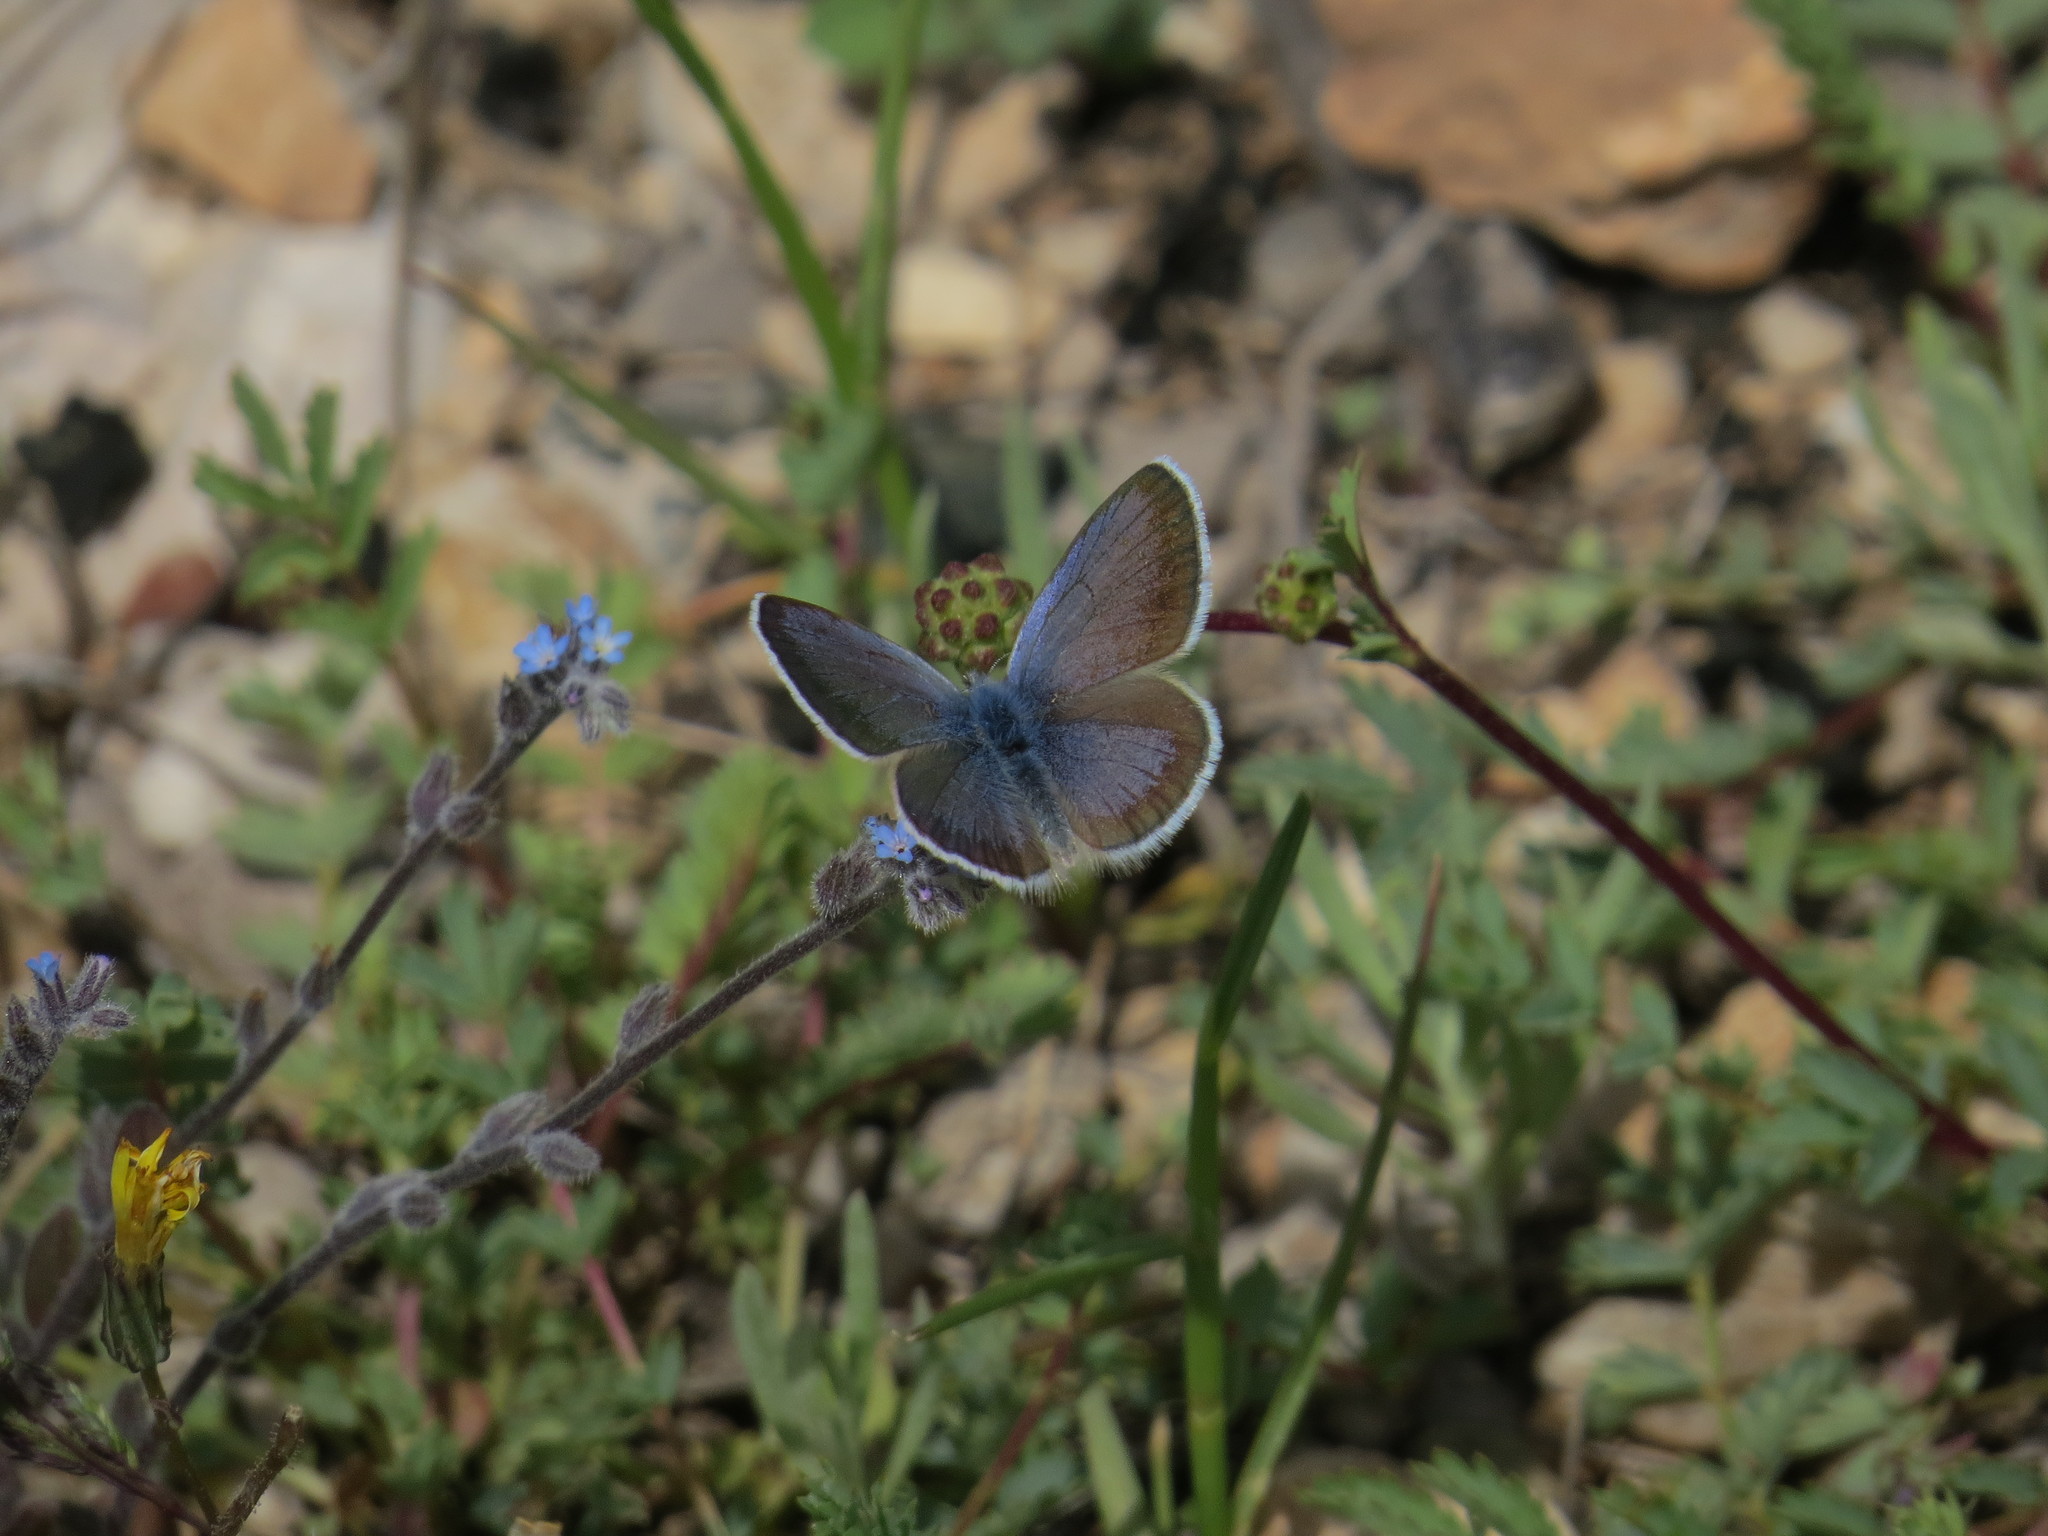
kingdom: Animalia
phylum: Arthropoda
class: Insecta
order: Lepidoptera
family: Lycaenidae
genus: Glaucopsyche
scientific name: Glaucopsyche astraea
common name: Anatolian black-eyed blue
